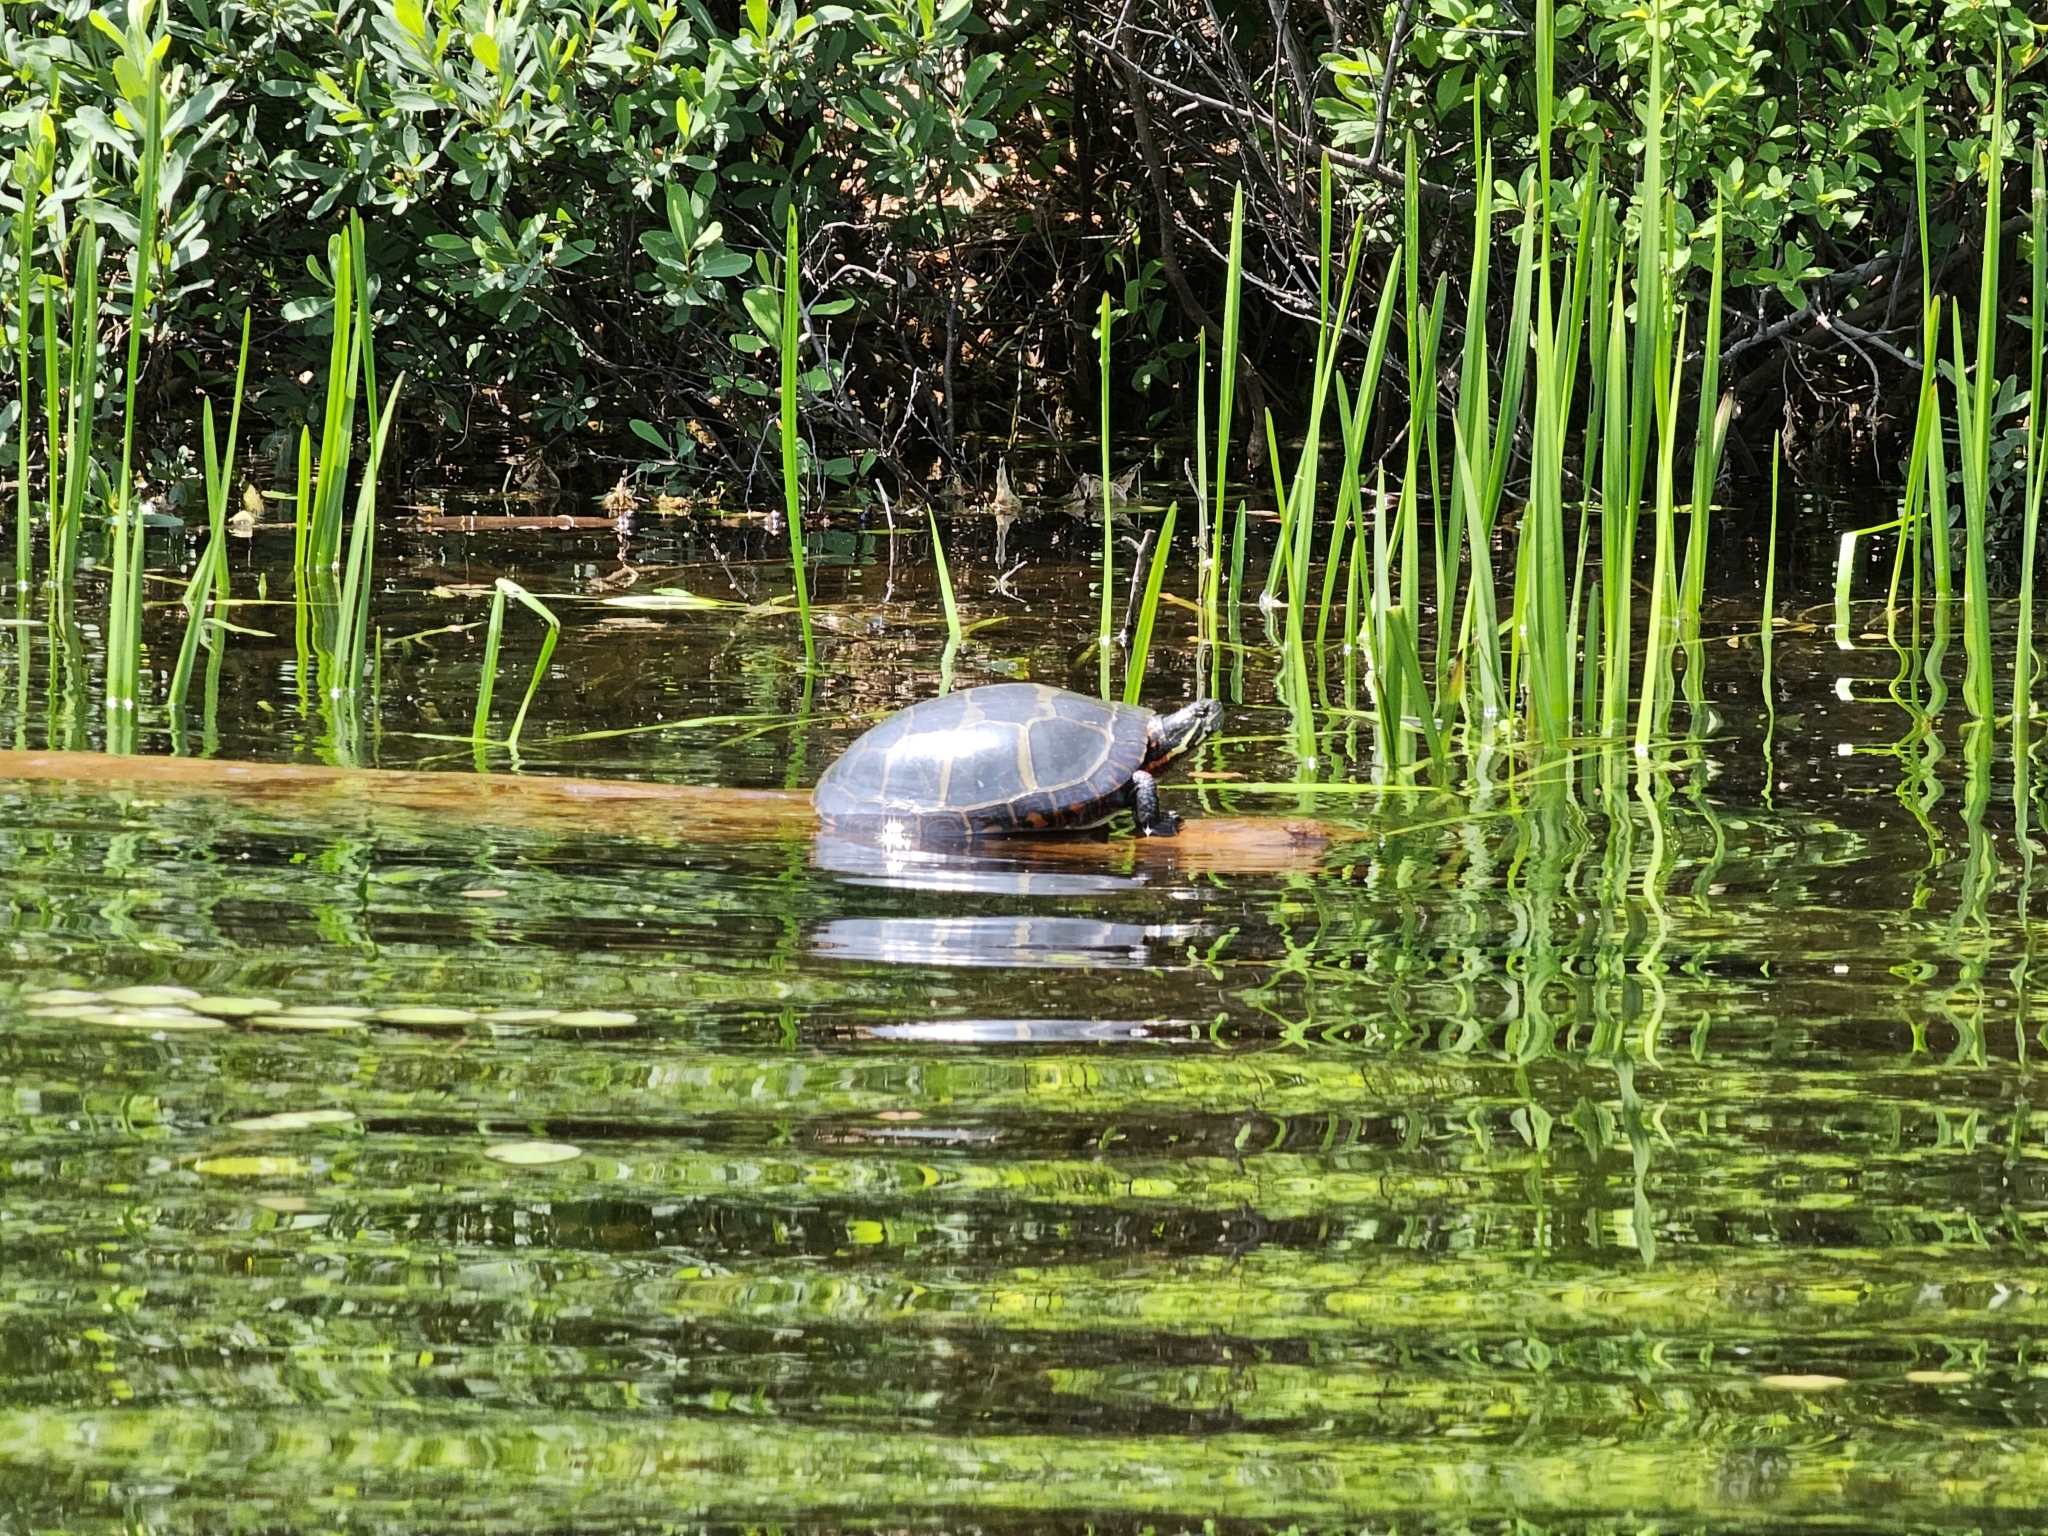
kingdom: Animalia
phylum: Chordata
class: Testudines
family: Emydidae
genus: Chrysemys
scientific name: Chrysemys picta
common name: Painted turtle
